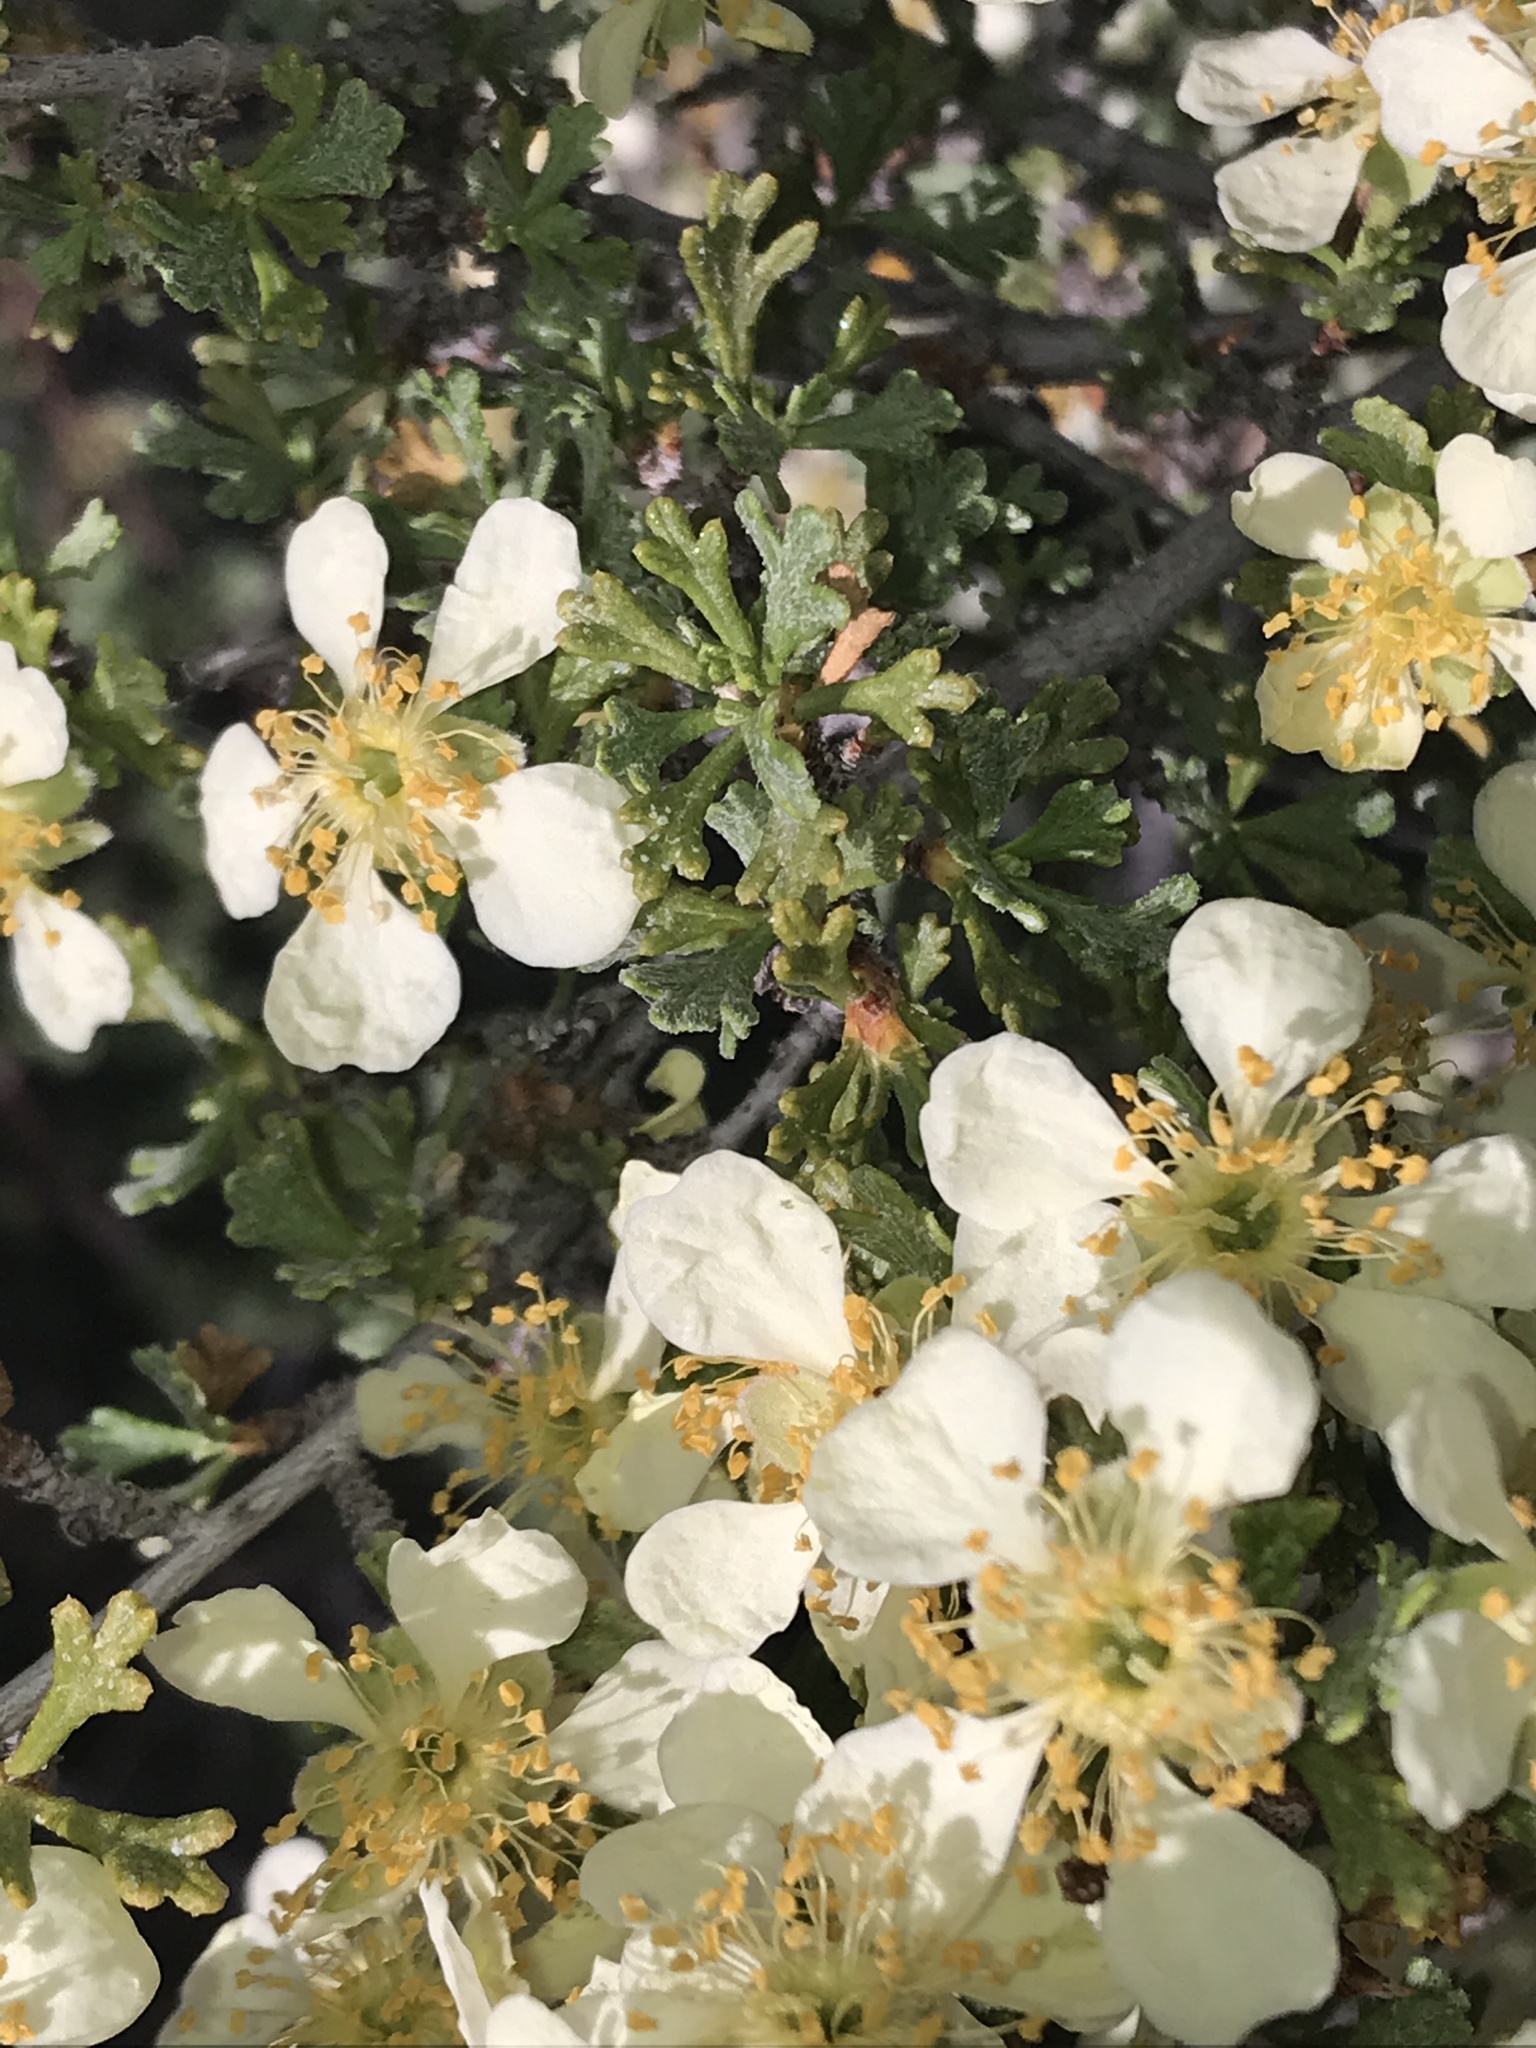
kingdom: Plantae
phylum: Tracheophyta
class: Magnoliopsida
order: Rosales
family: Rosaceae
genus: Purshia
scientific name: Purshia stansburiana
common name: Stansbury's cliffrose
